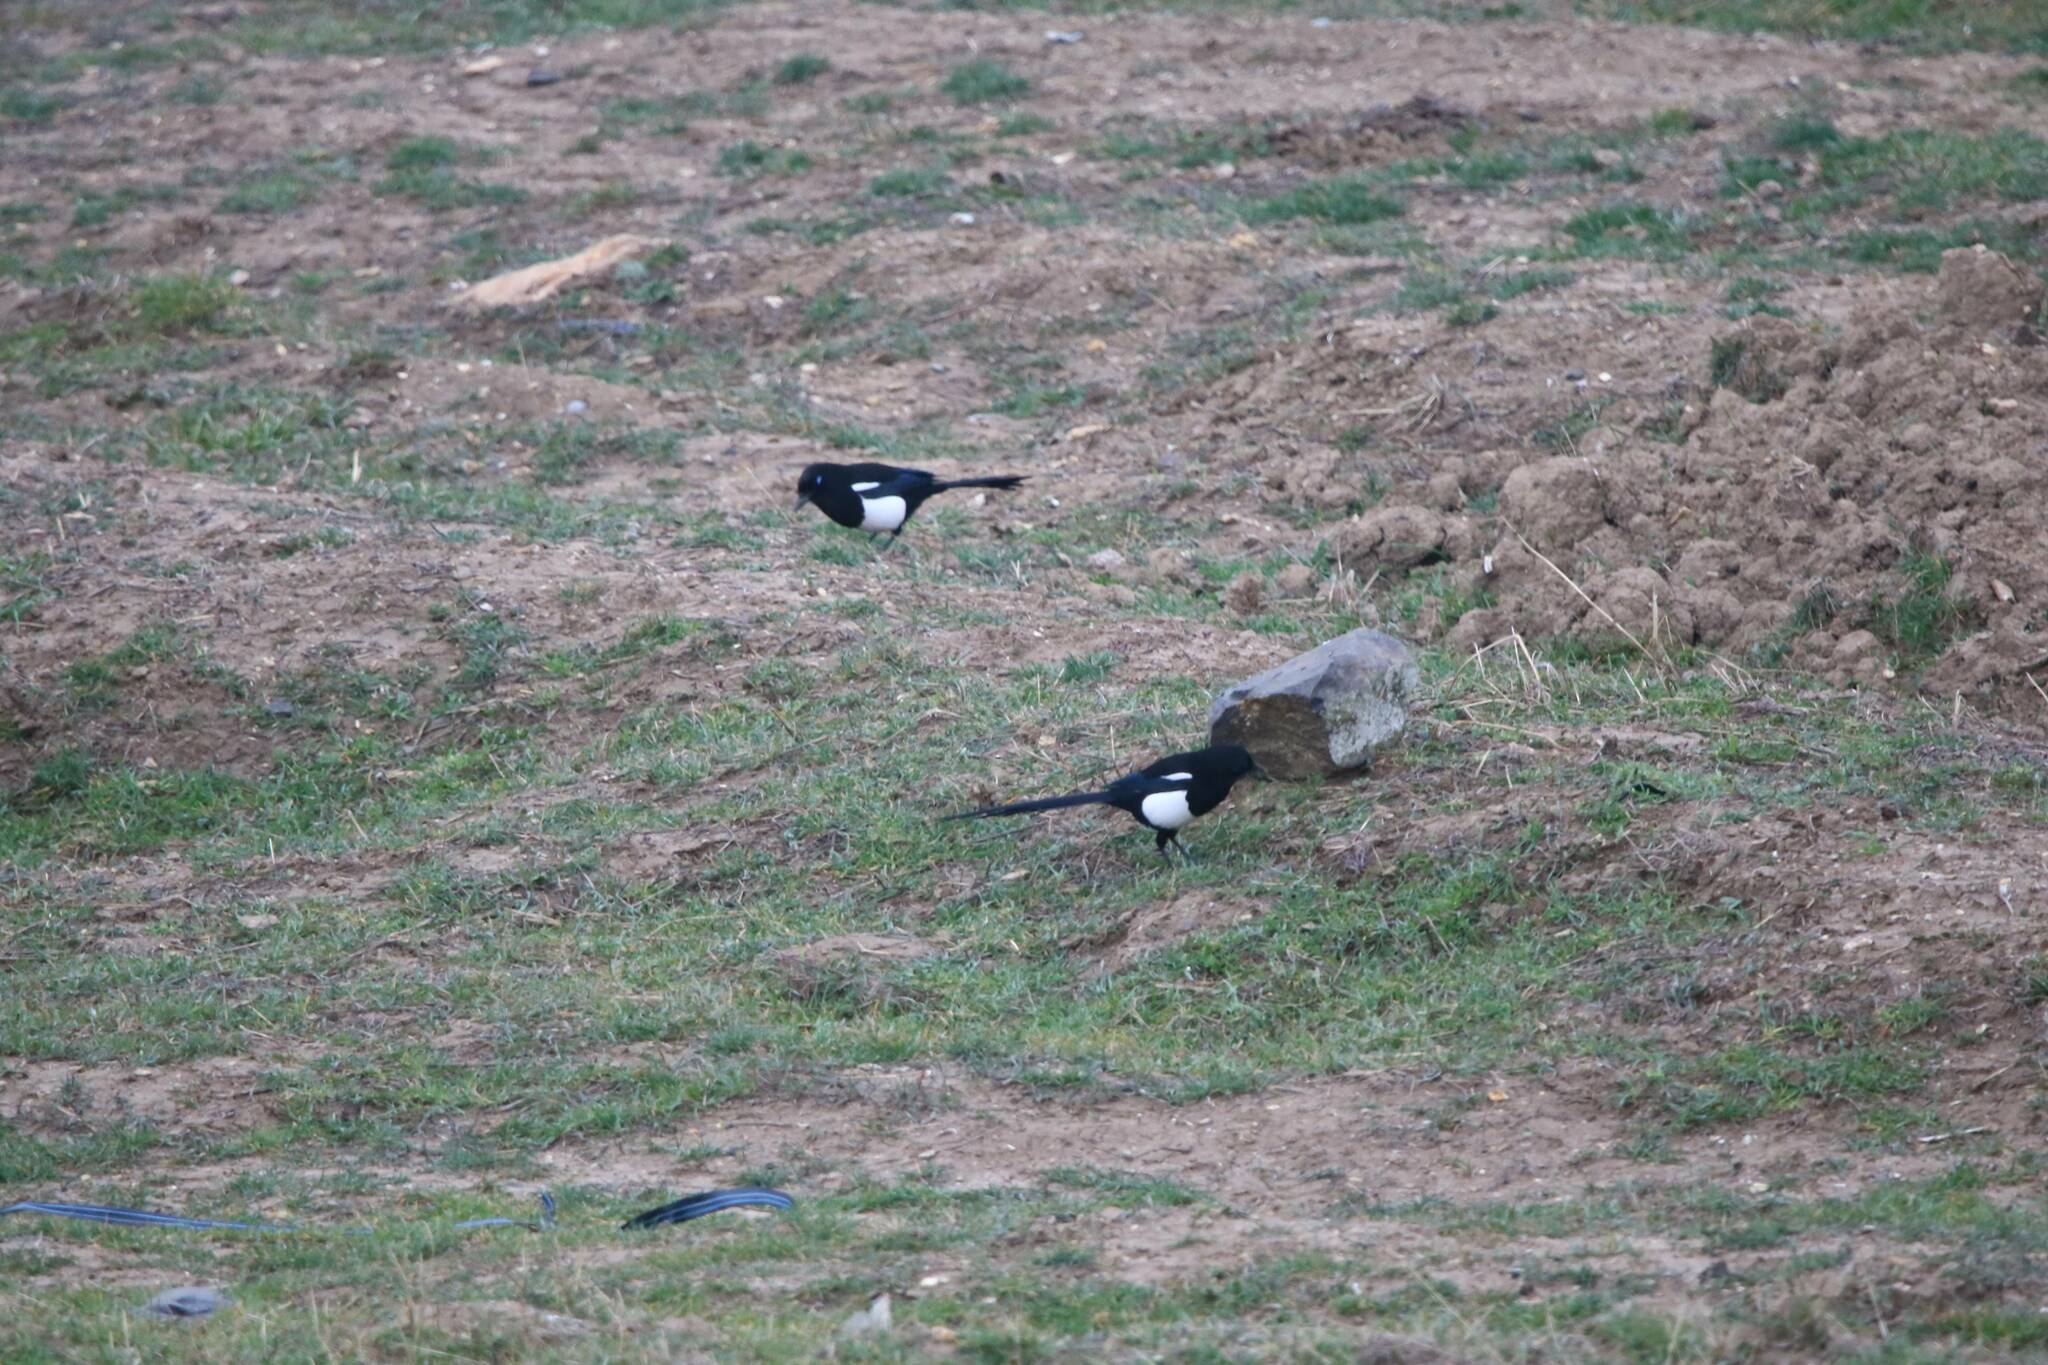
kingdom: Animalia
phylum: Chordata
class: Aves
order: Passeriformes
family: Corvidae
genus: Pica
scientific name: Pica mauritanica
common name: Maghreb magpie
